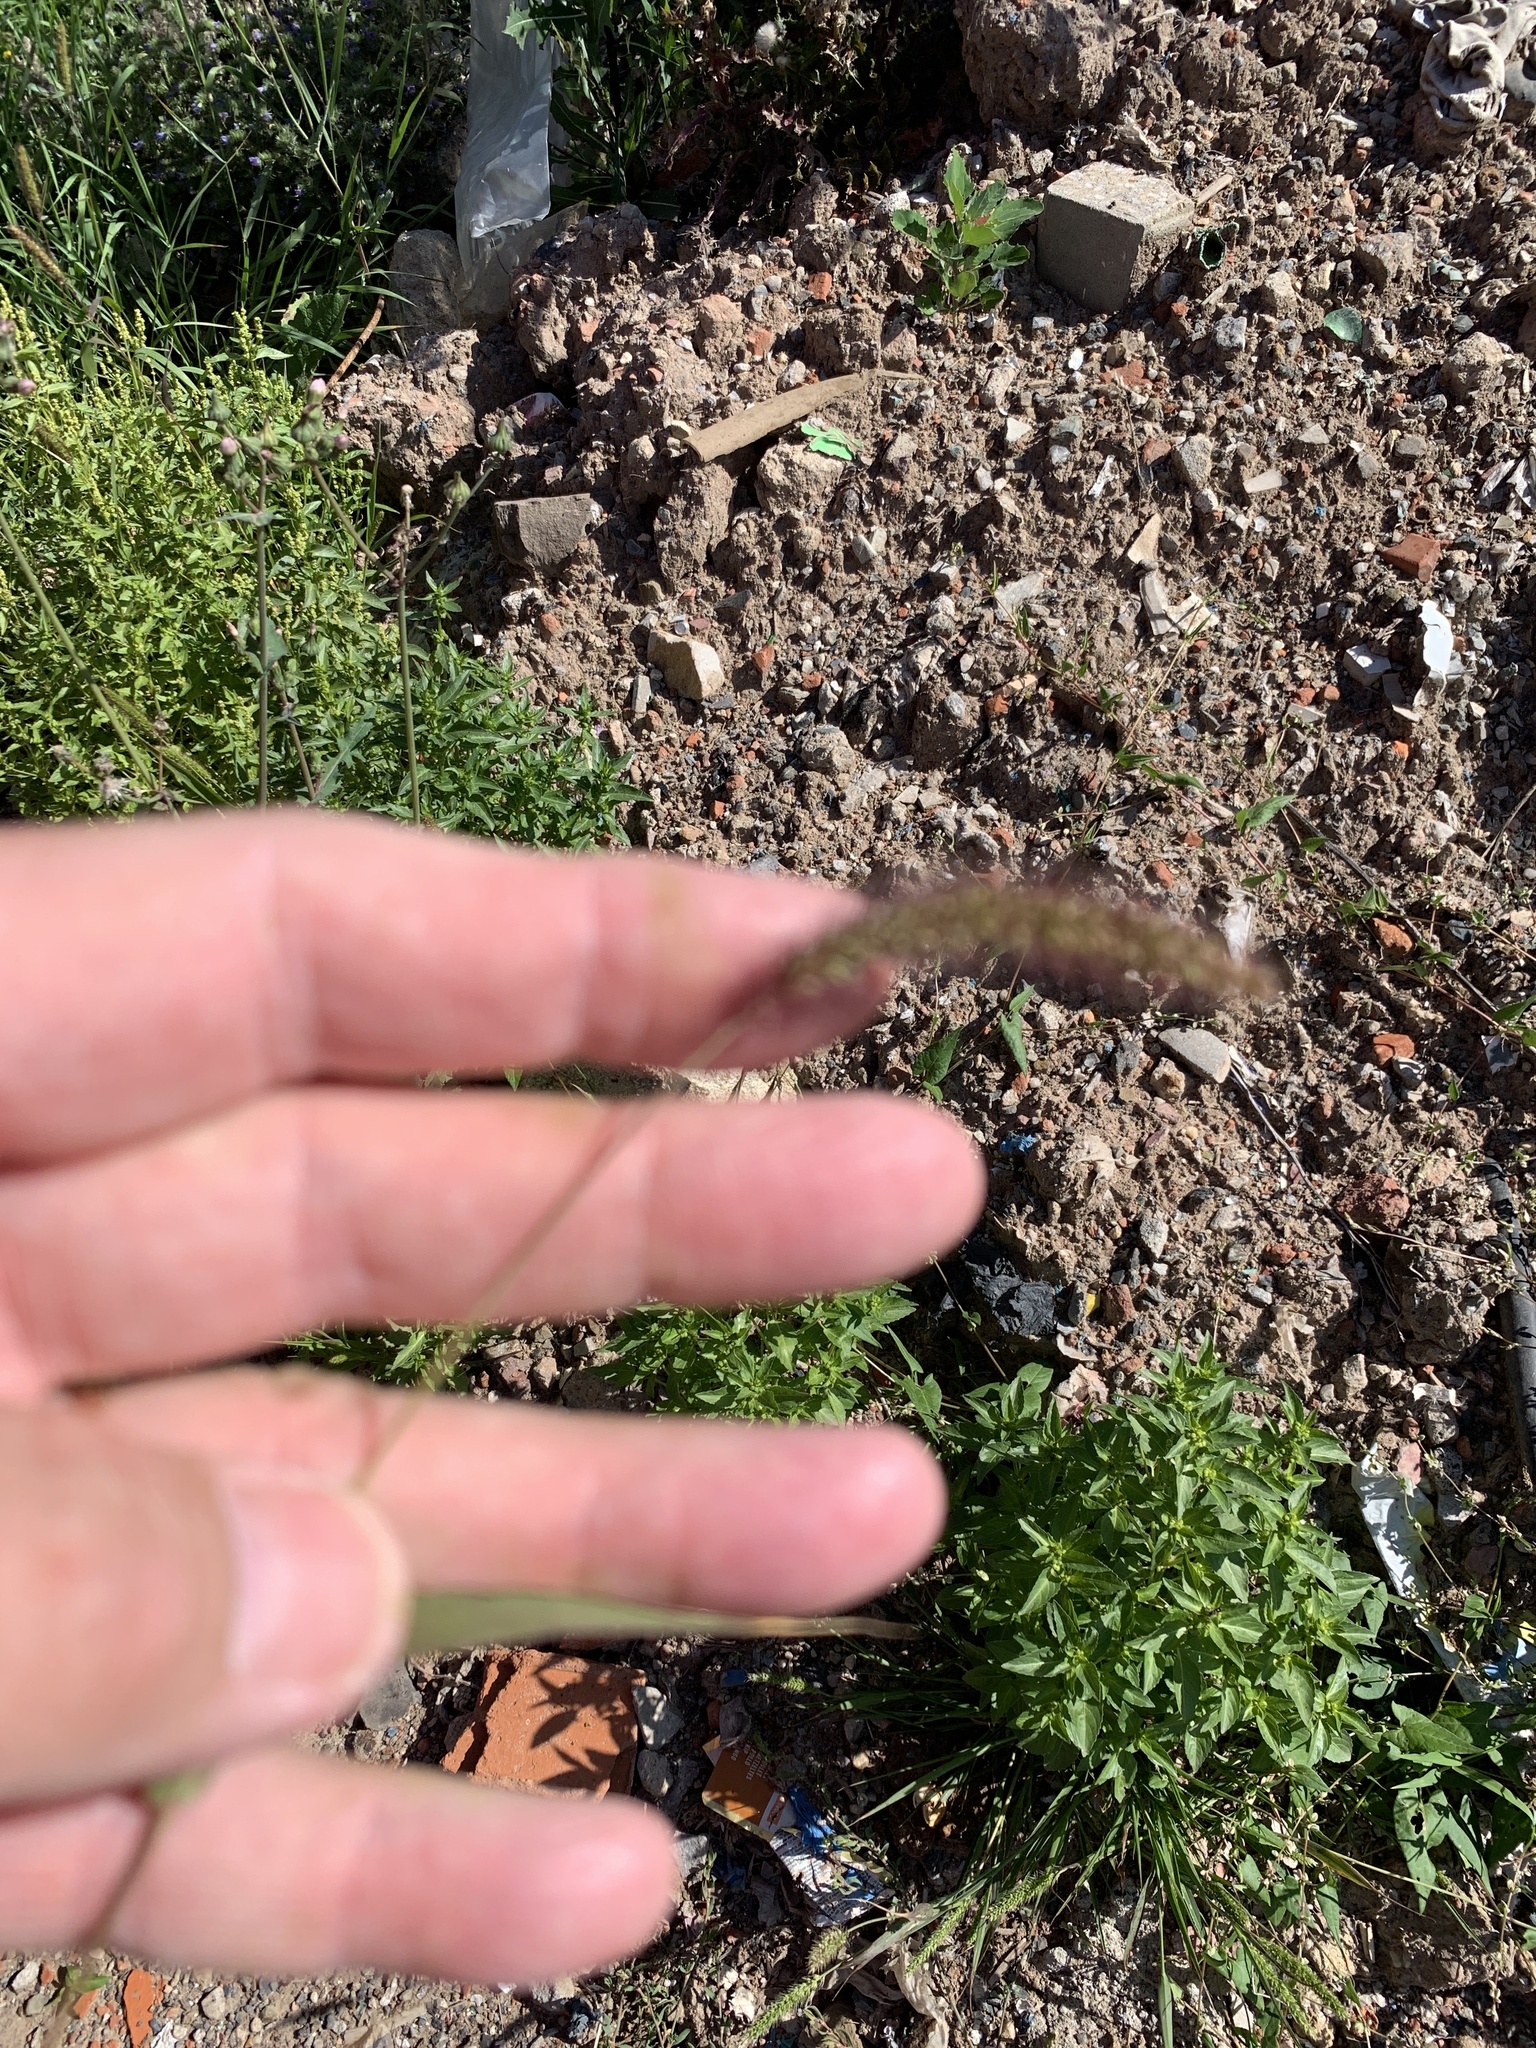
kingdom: Plantae
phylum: Tracheophyta
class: Liliopsida
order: Poales
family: Poaceae
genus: Setaria
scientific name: Setaria viridis
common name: Green bristlegrass
